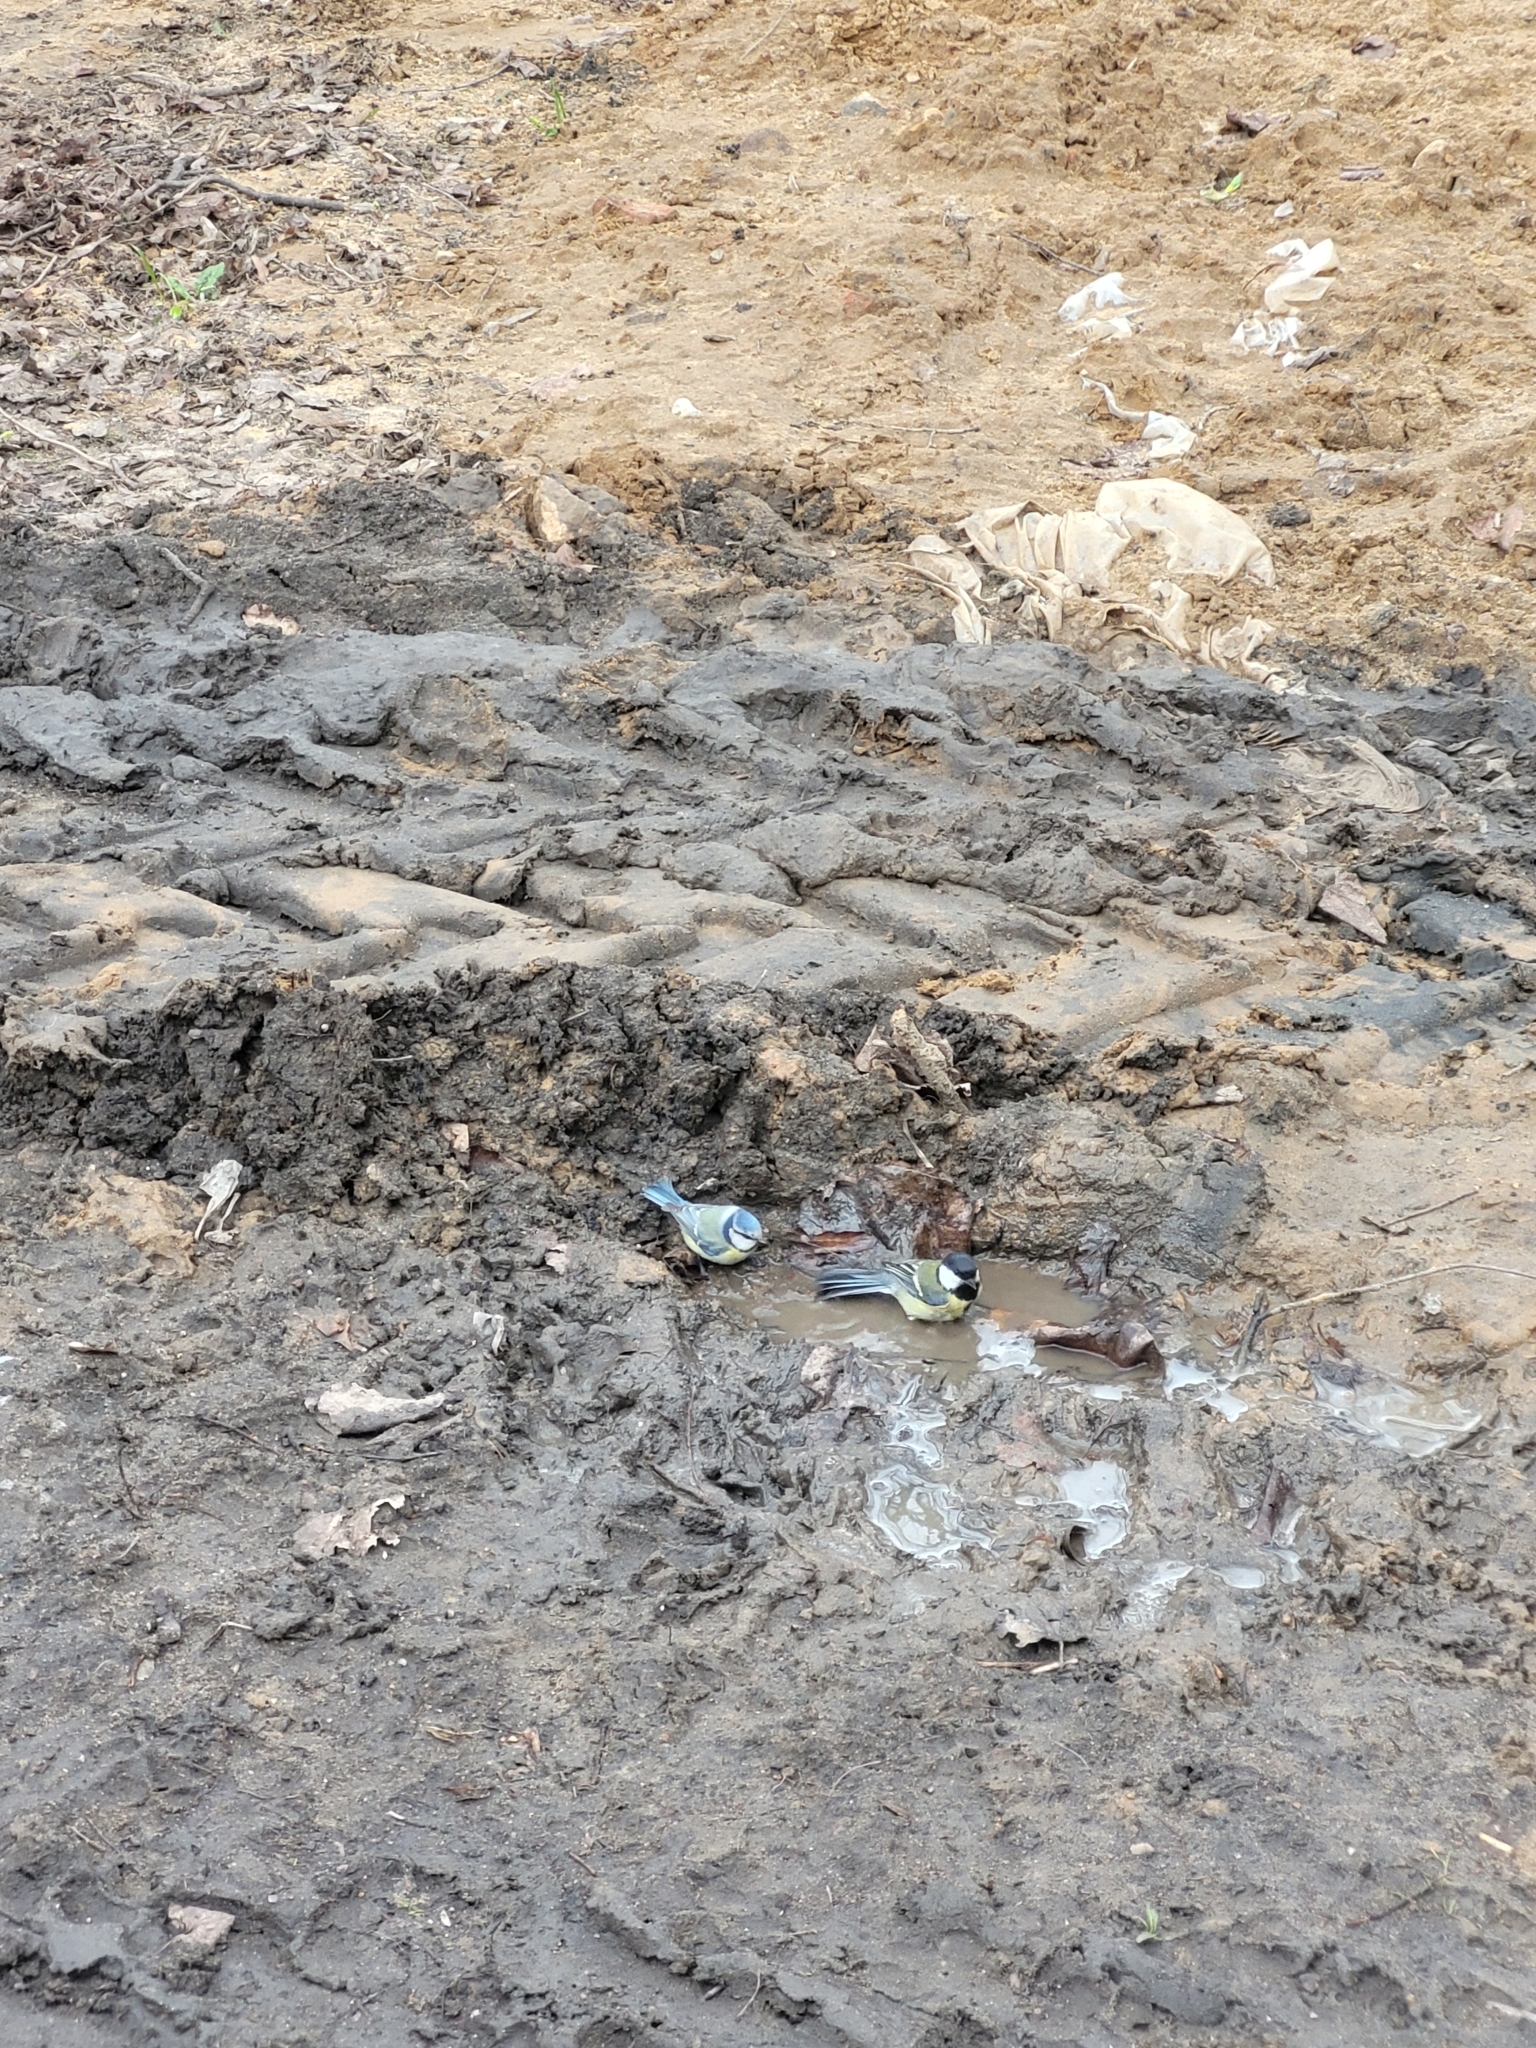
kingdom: Animalia
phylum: Chordata
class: Aves
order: Passeriformes
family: Paridae
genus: Parus
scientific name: Parus major
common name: Great tit
